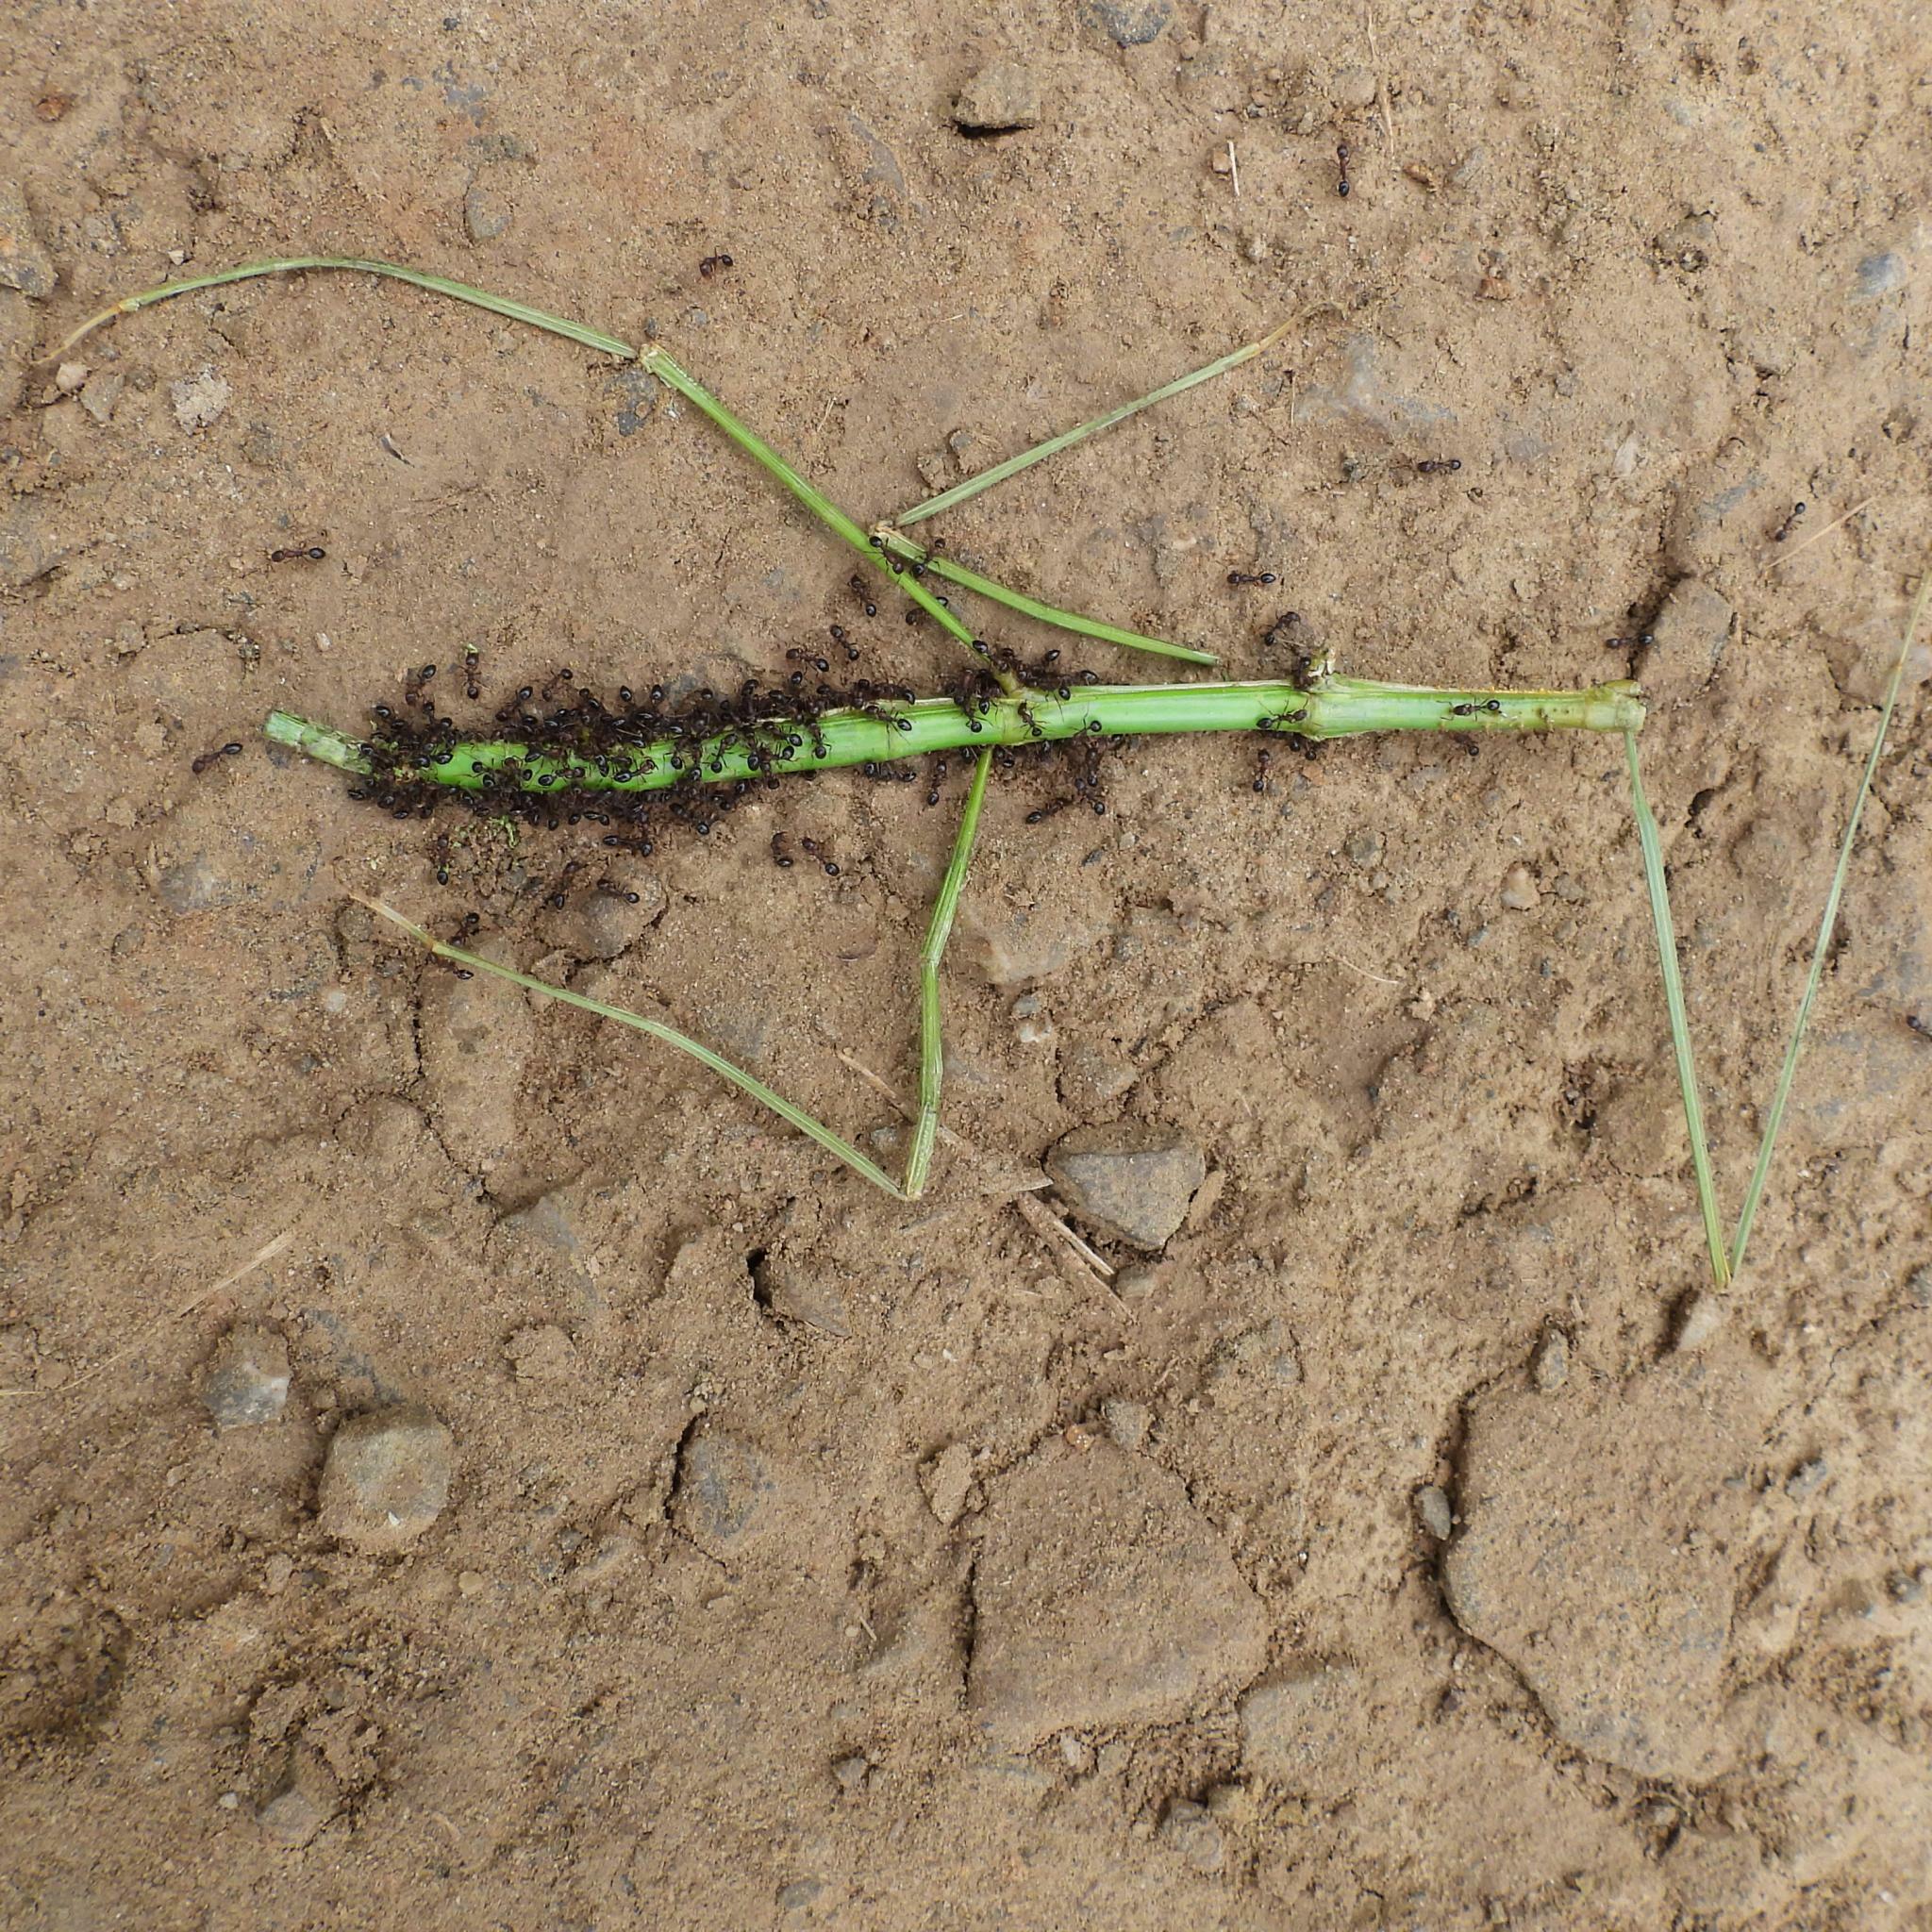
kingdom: Animalia
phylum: Arthropoda
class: Insecta
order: Phasmida
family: Bacillidae
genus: Phalces
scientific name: Phalces brevis
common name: Cape stick insect
